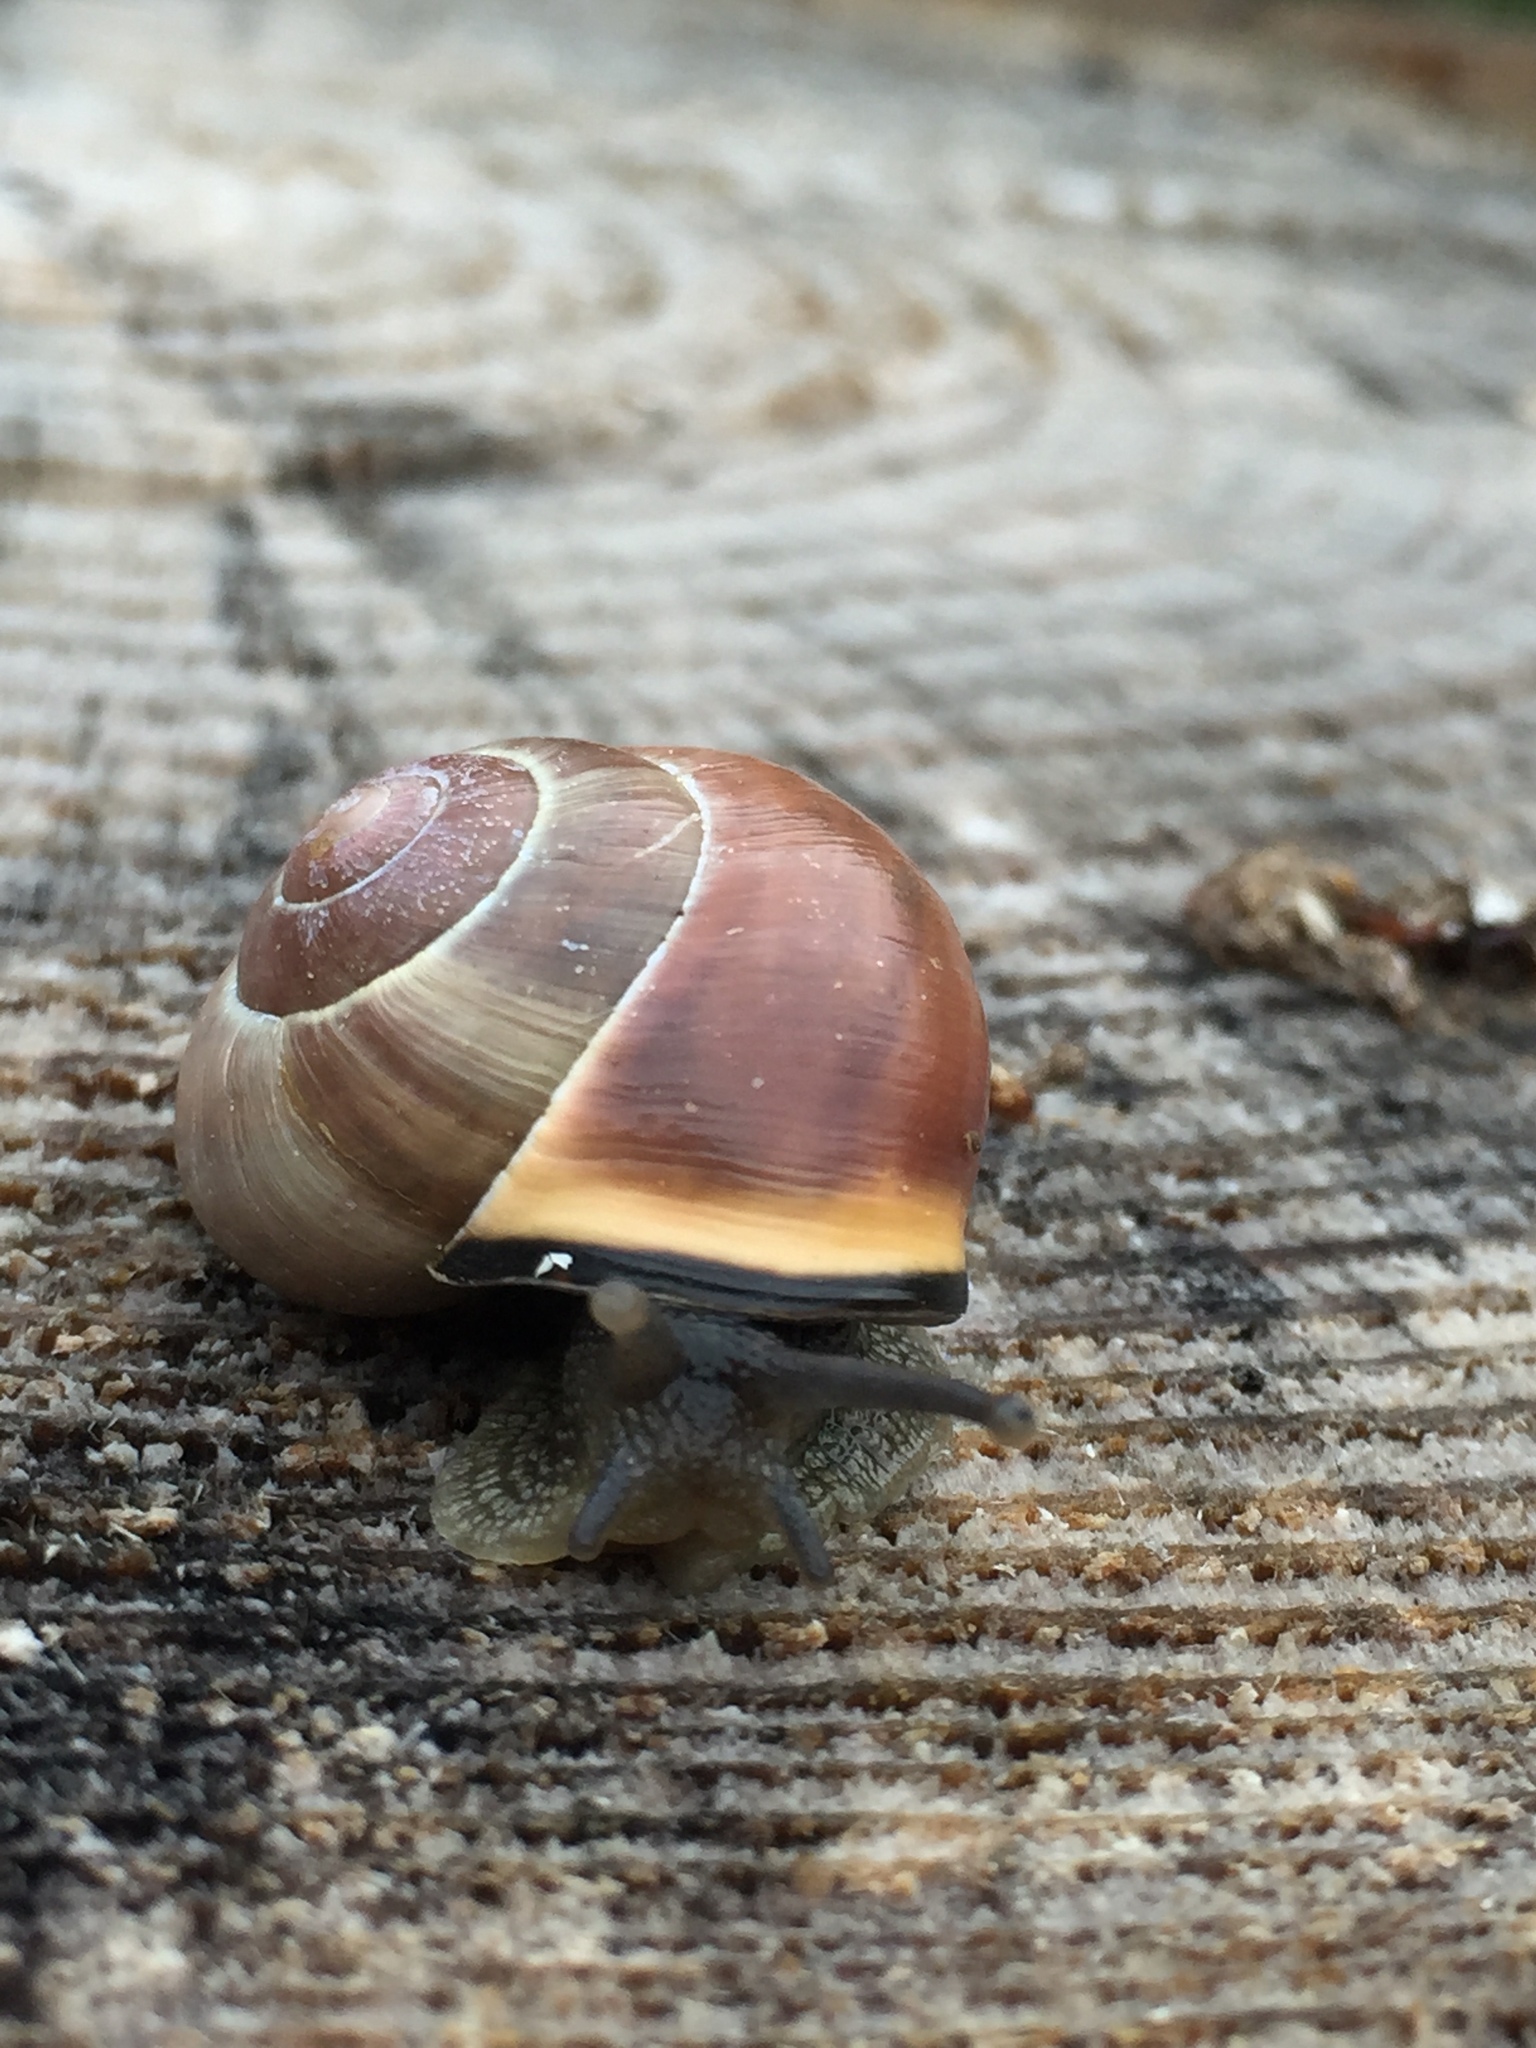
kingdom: Animalia
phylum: Mollusca
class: Gastropoda
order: Stylommatophora
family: Helicidae
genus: Cepaea
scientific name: Cepaea nemoralis
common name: Grovesnail
